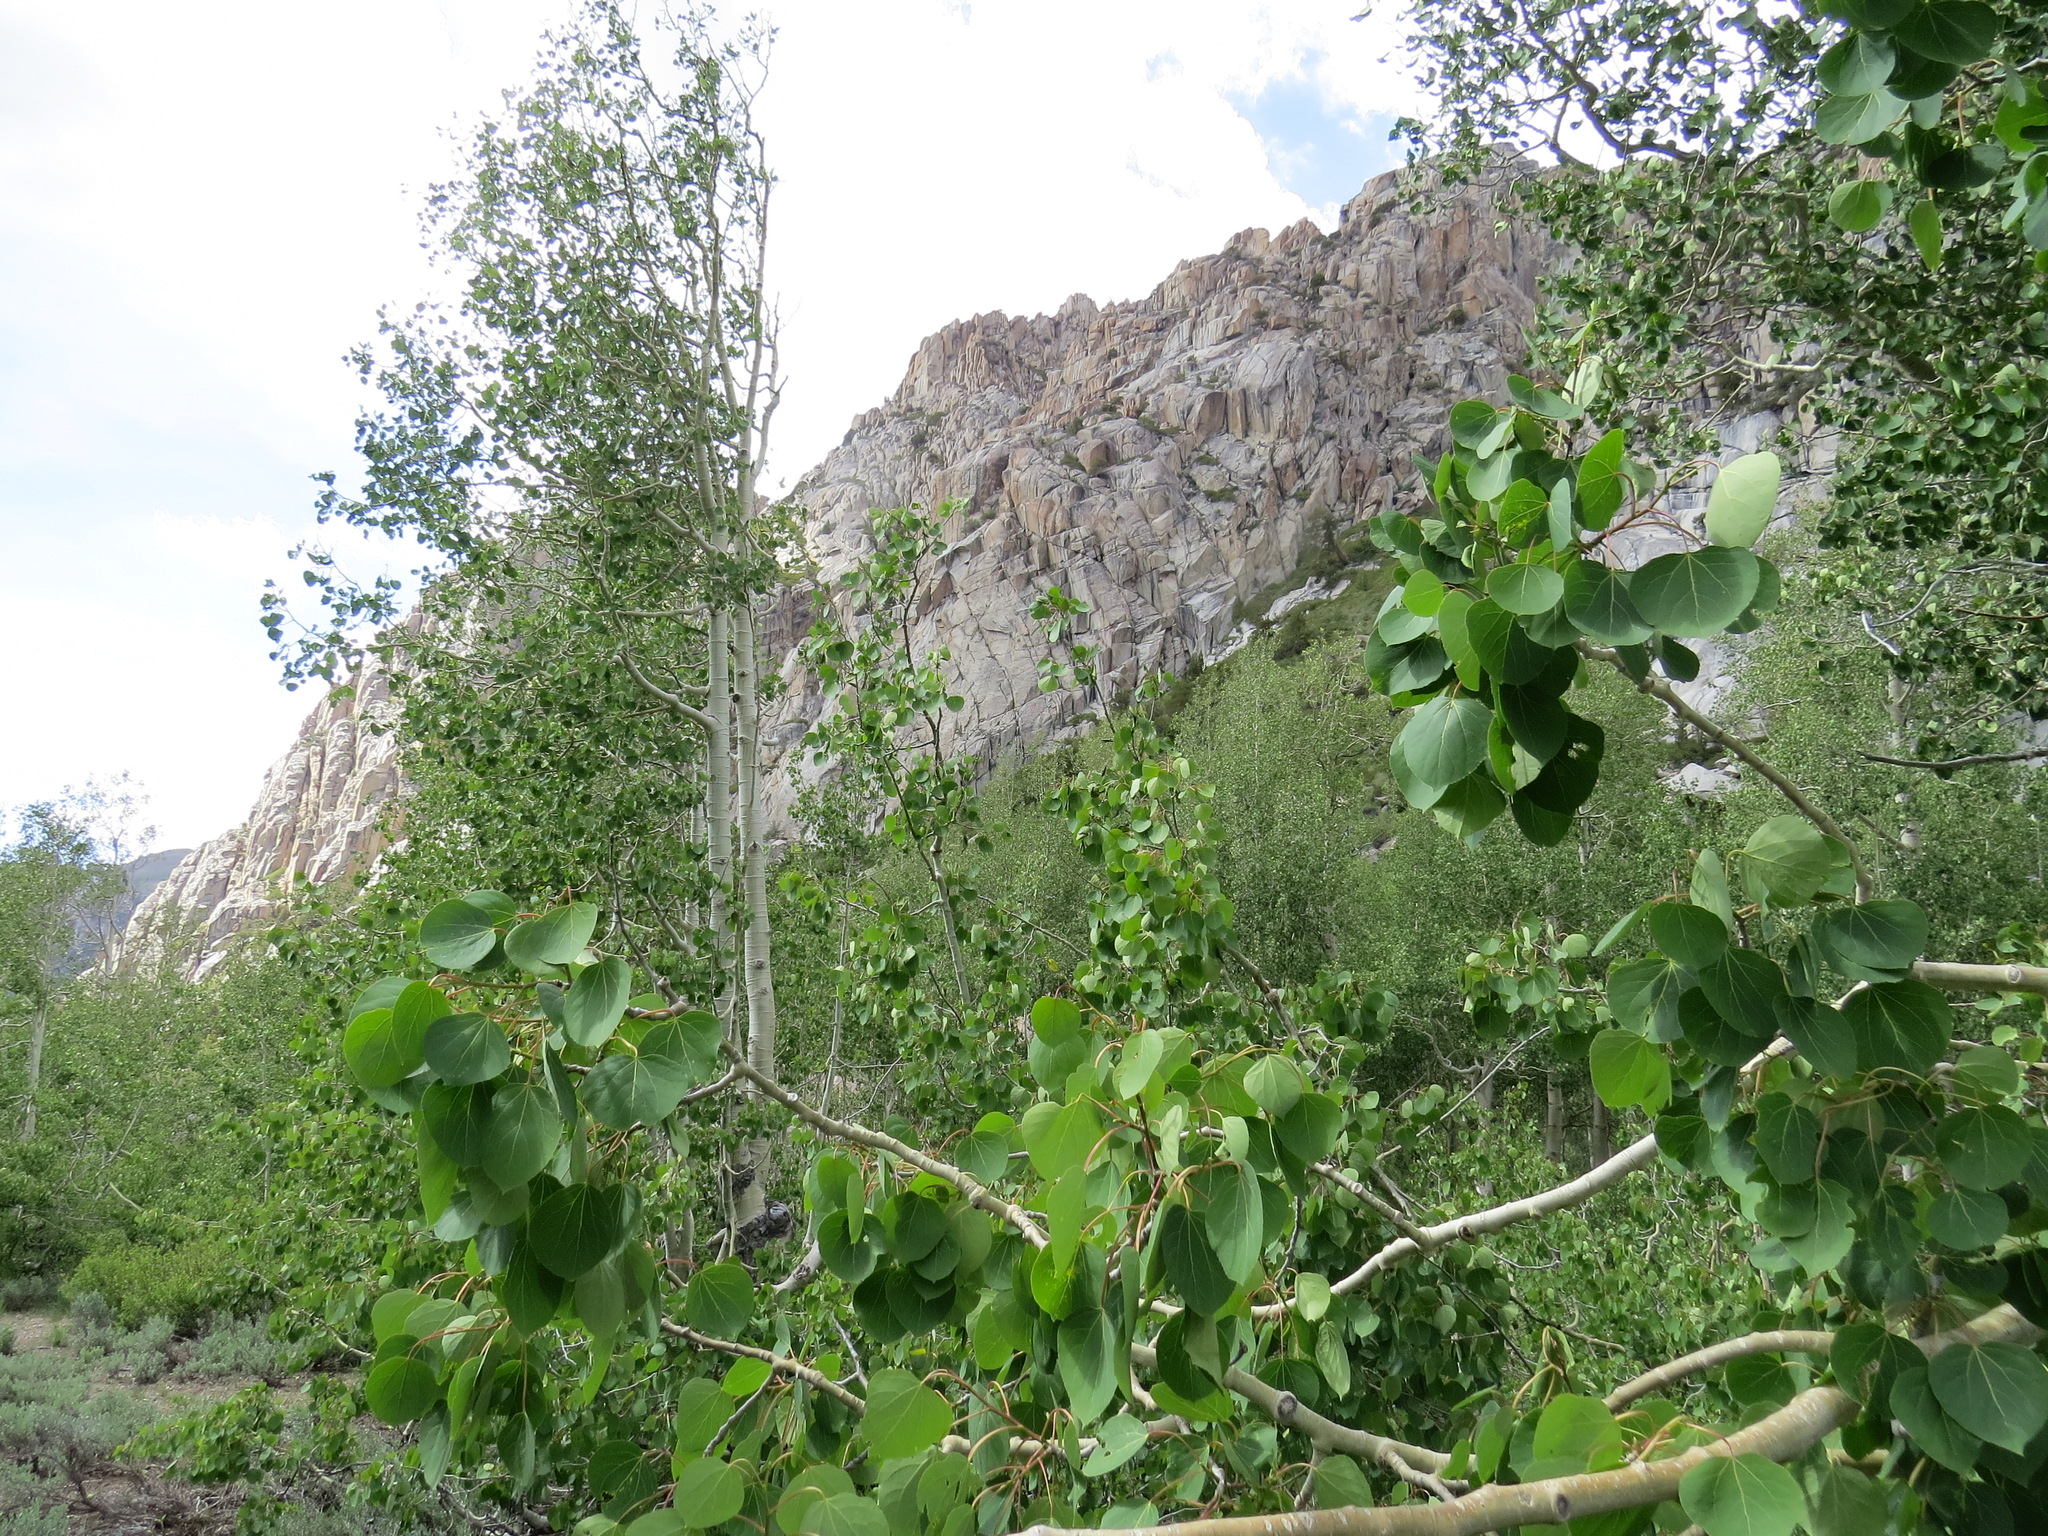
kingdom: Plantae
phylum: Tracheophyta
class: Magnoliopsida
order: Malpighiales
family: Salicaceae
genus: Populus
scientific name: Populus tremuloides
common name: Quaking aspen
